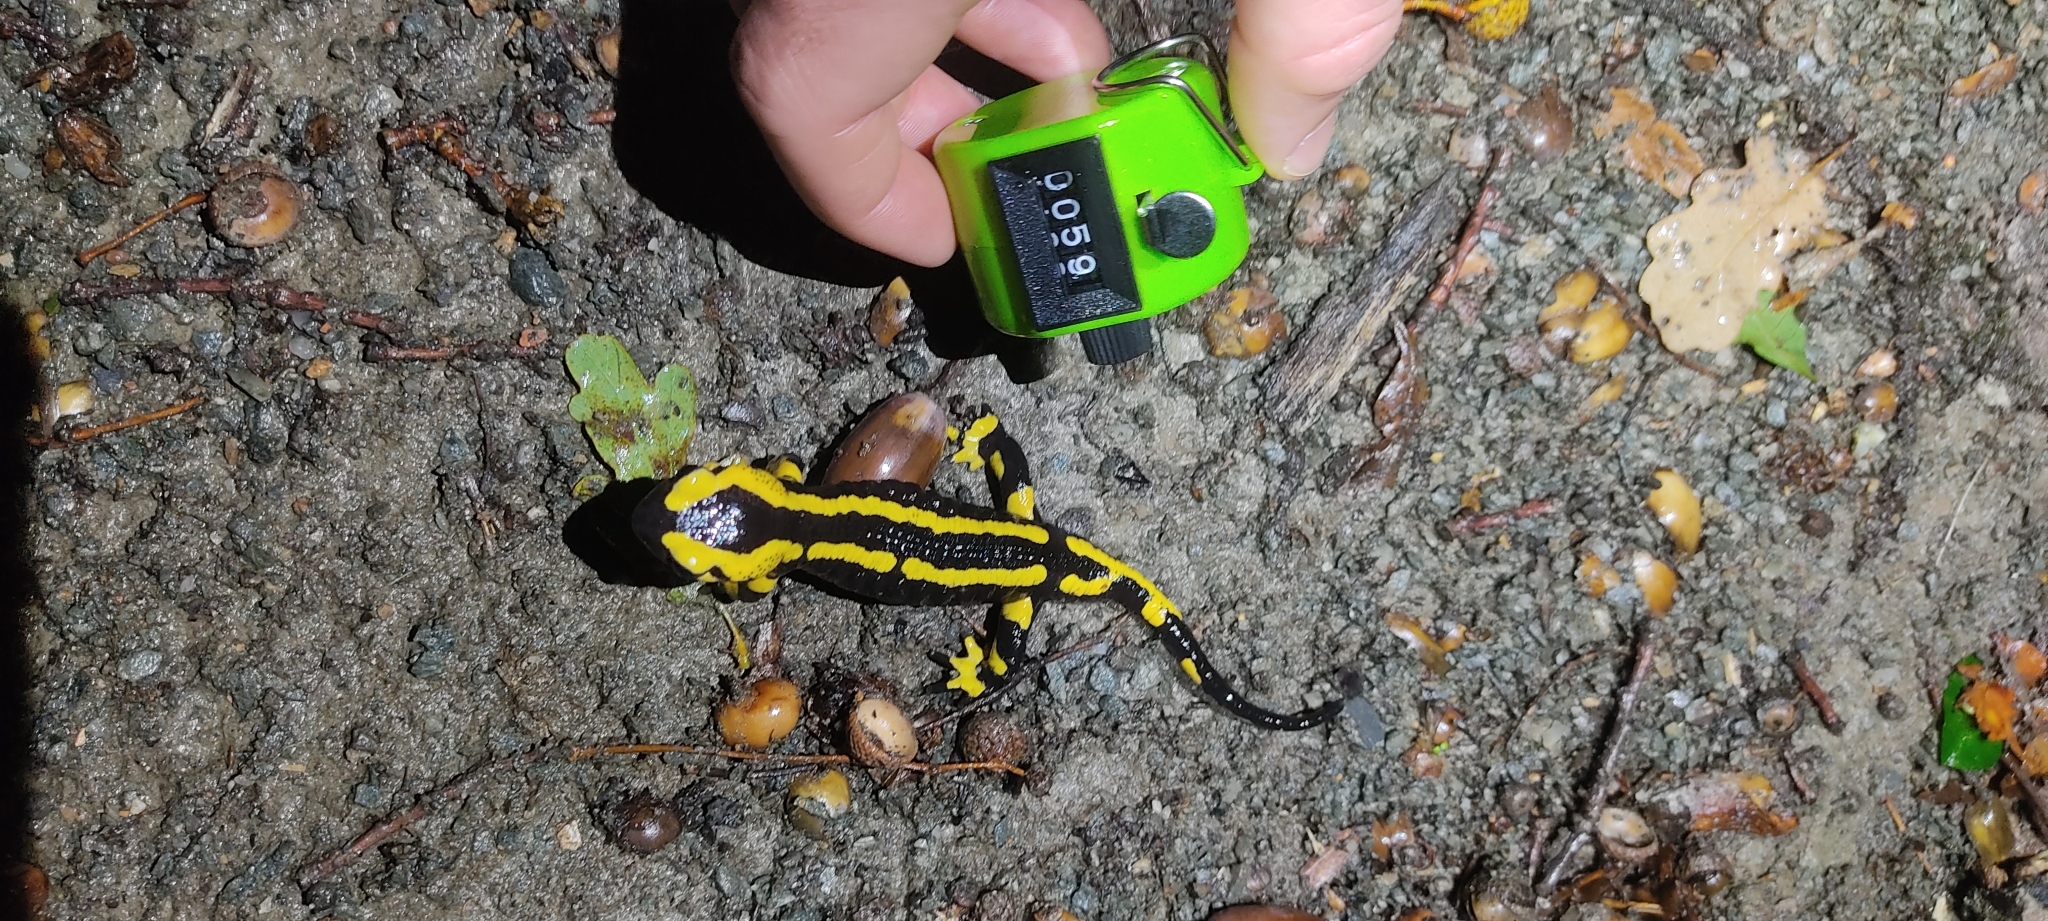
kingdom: Animalia
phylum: Chordata
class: Amphibia
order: Caudata
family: Salamandridae
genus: Salamandra
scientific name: Salamandra salamandra
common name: Fire salamander
